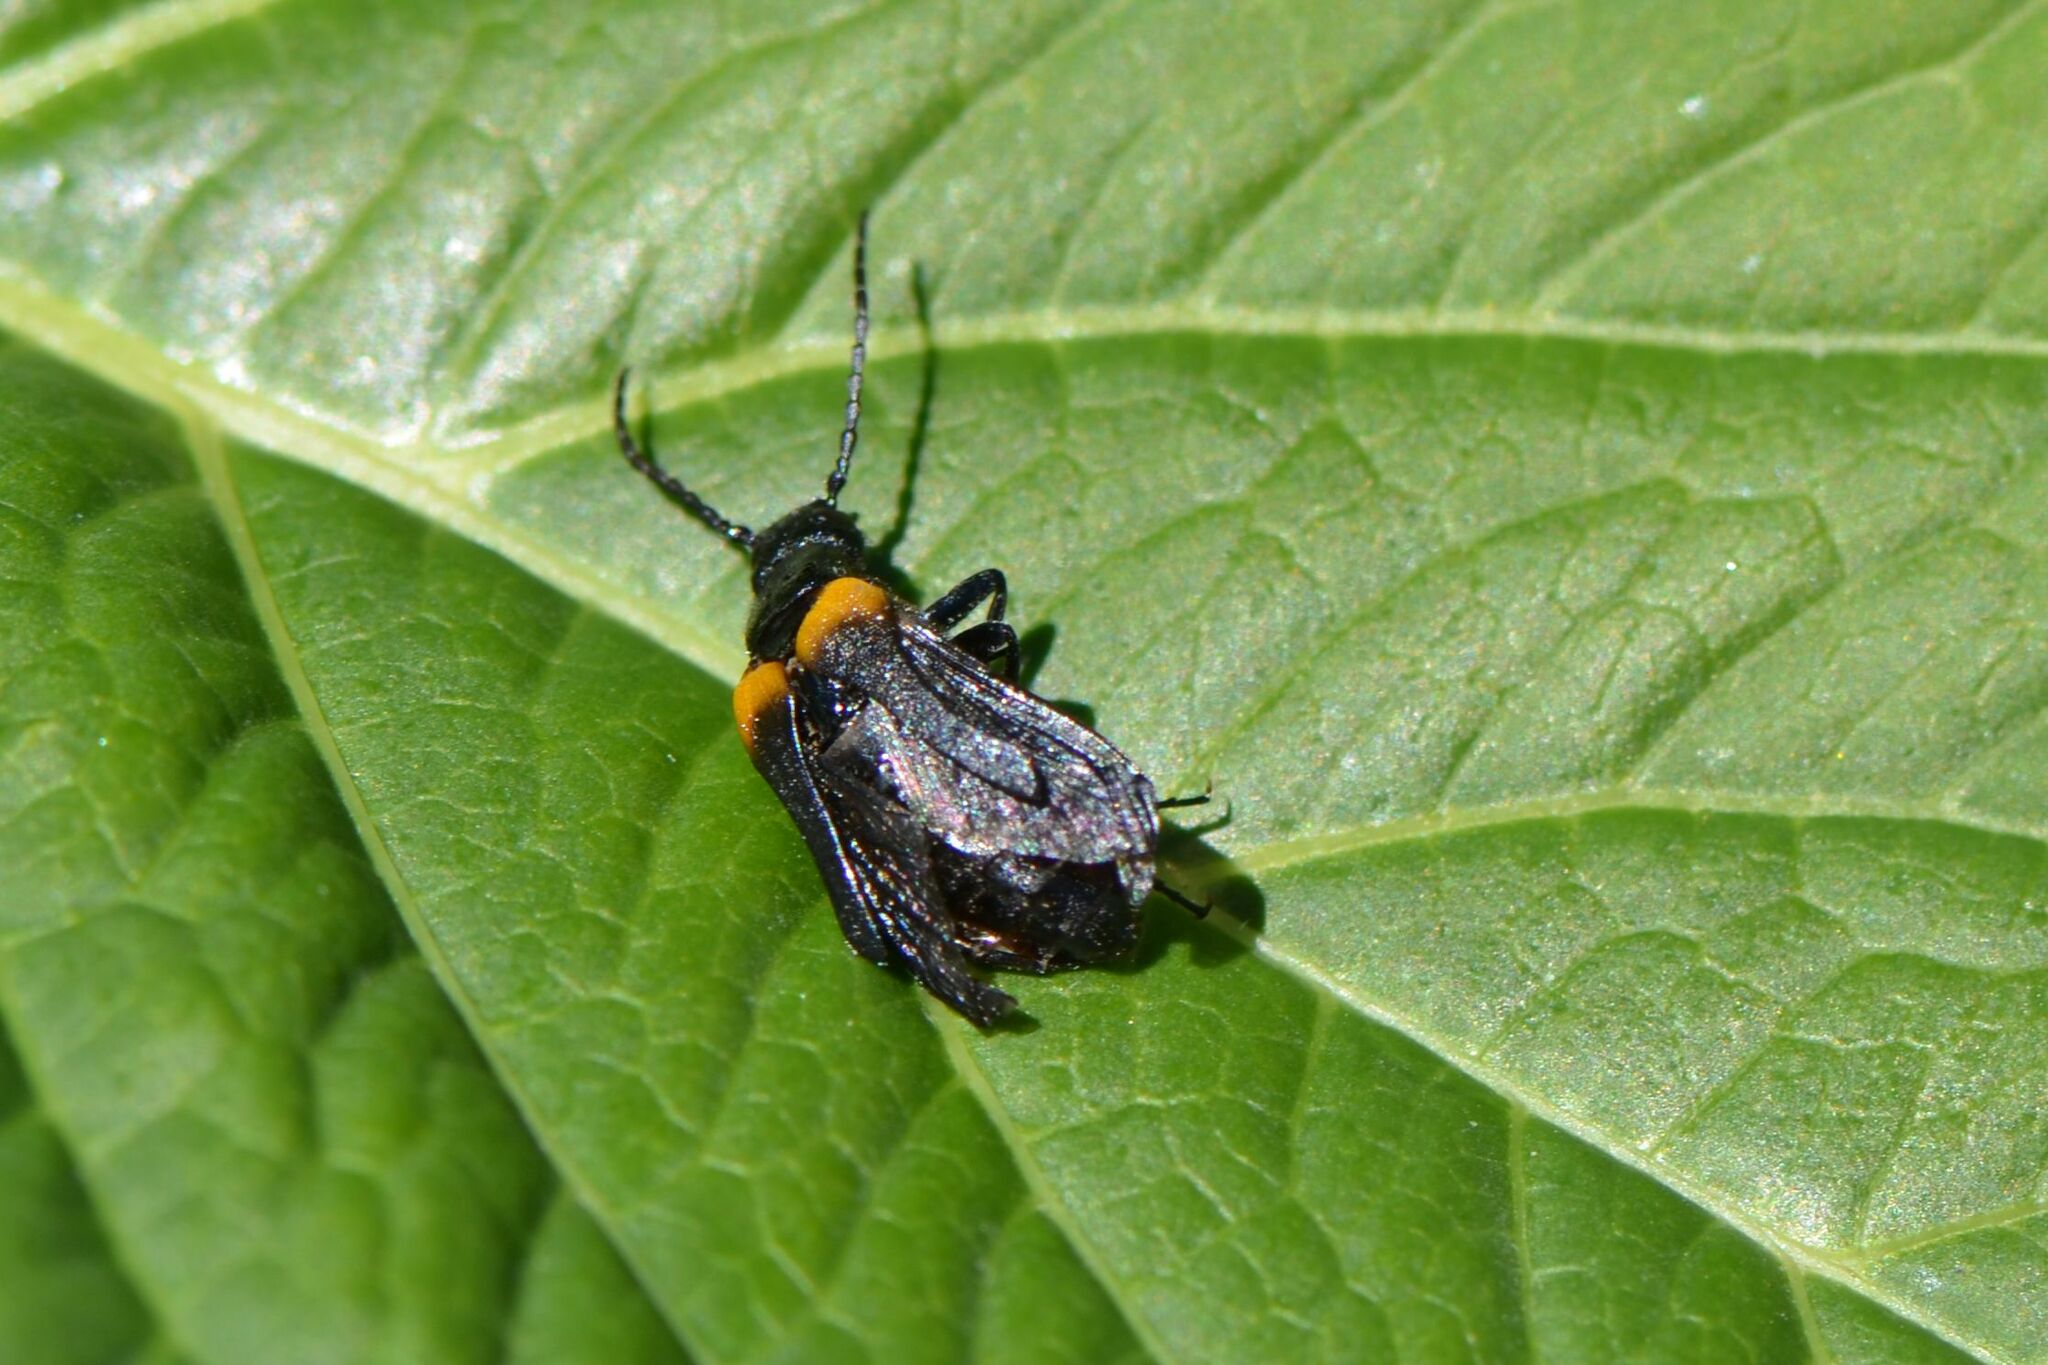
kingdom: Animalia
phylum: Arthropoda
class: Insecta
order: Coleoptera
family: Meloidae
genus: Sitaris
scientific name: Sitaris muralis
